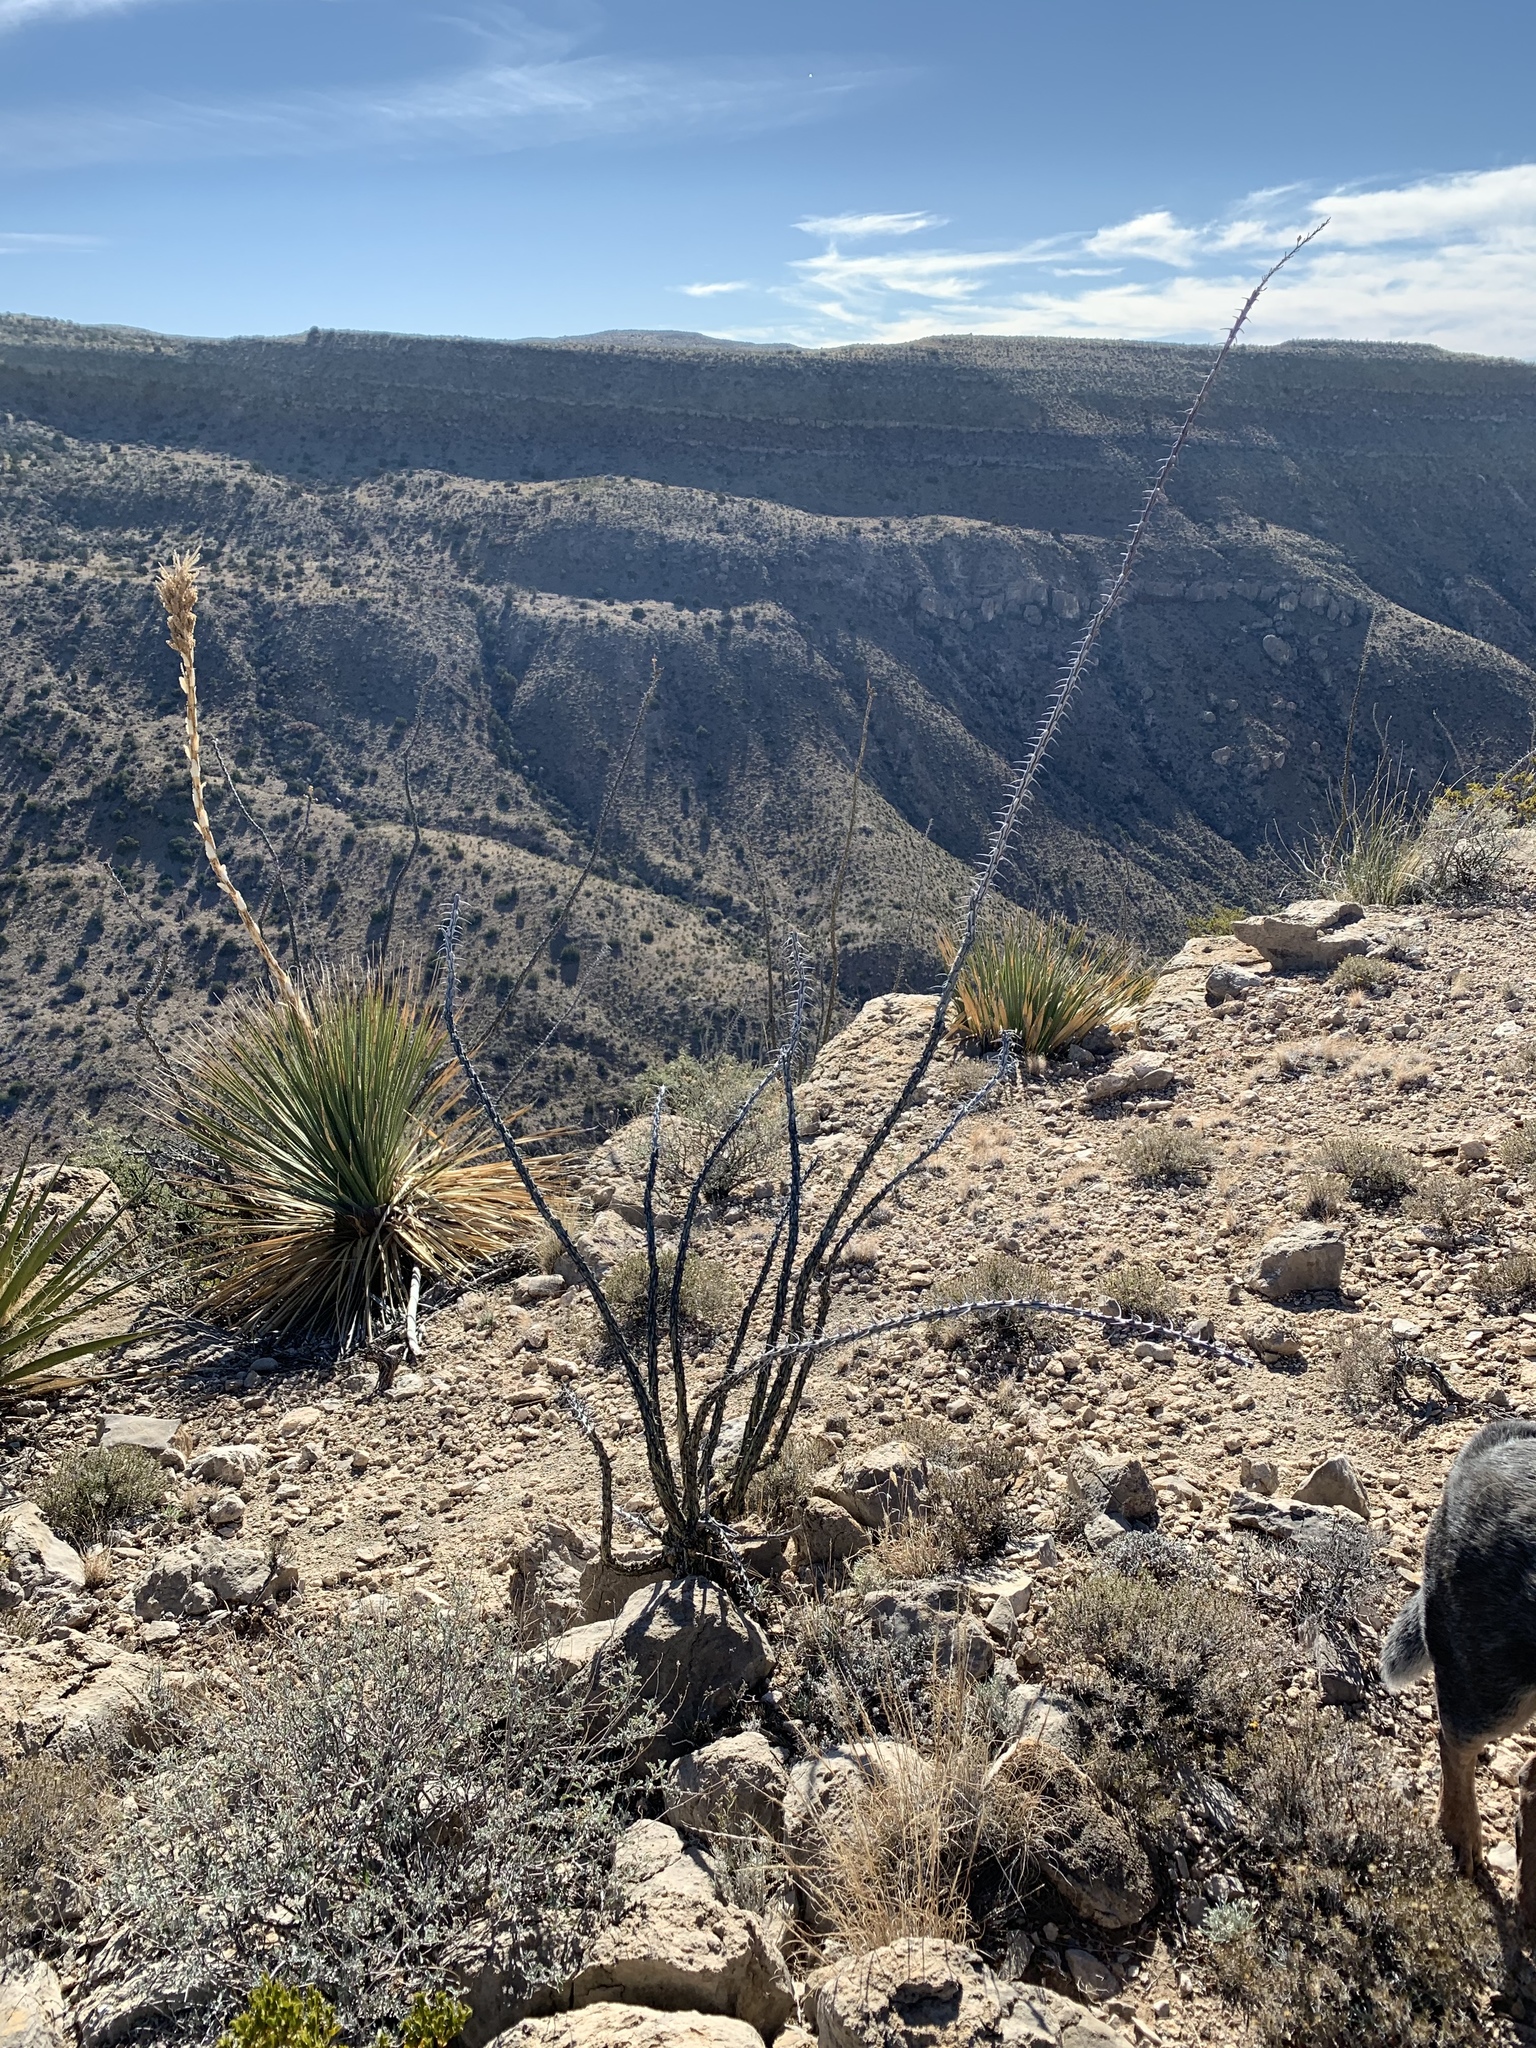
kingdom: Plantae
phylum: Tracheophyta
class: Magnoliopsida
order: Ericales
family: Fouquieriaceae
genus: Fouquieria
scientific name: Fouquieria splendens
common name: Vine-cactus
